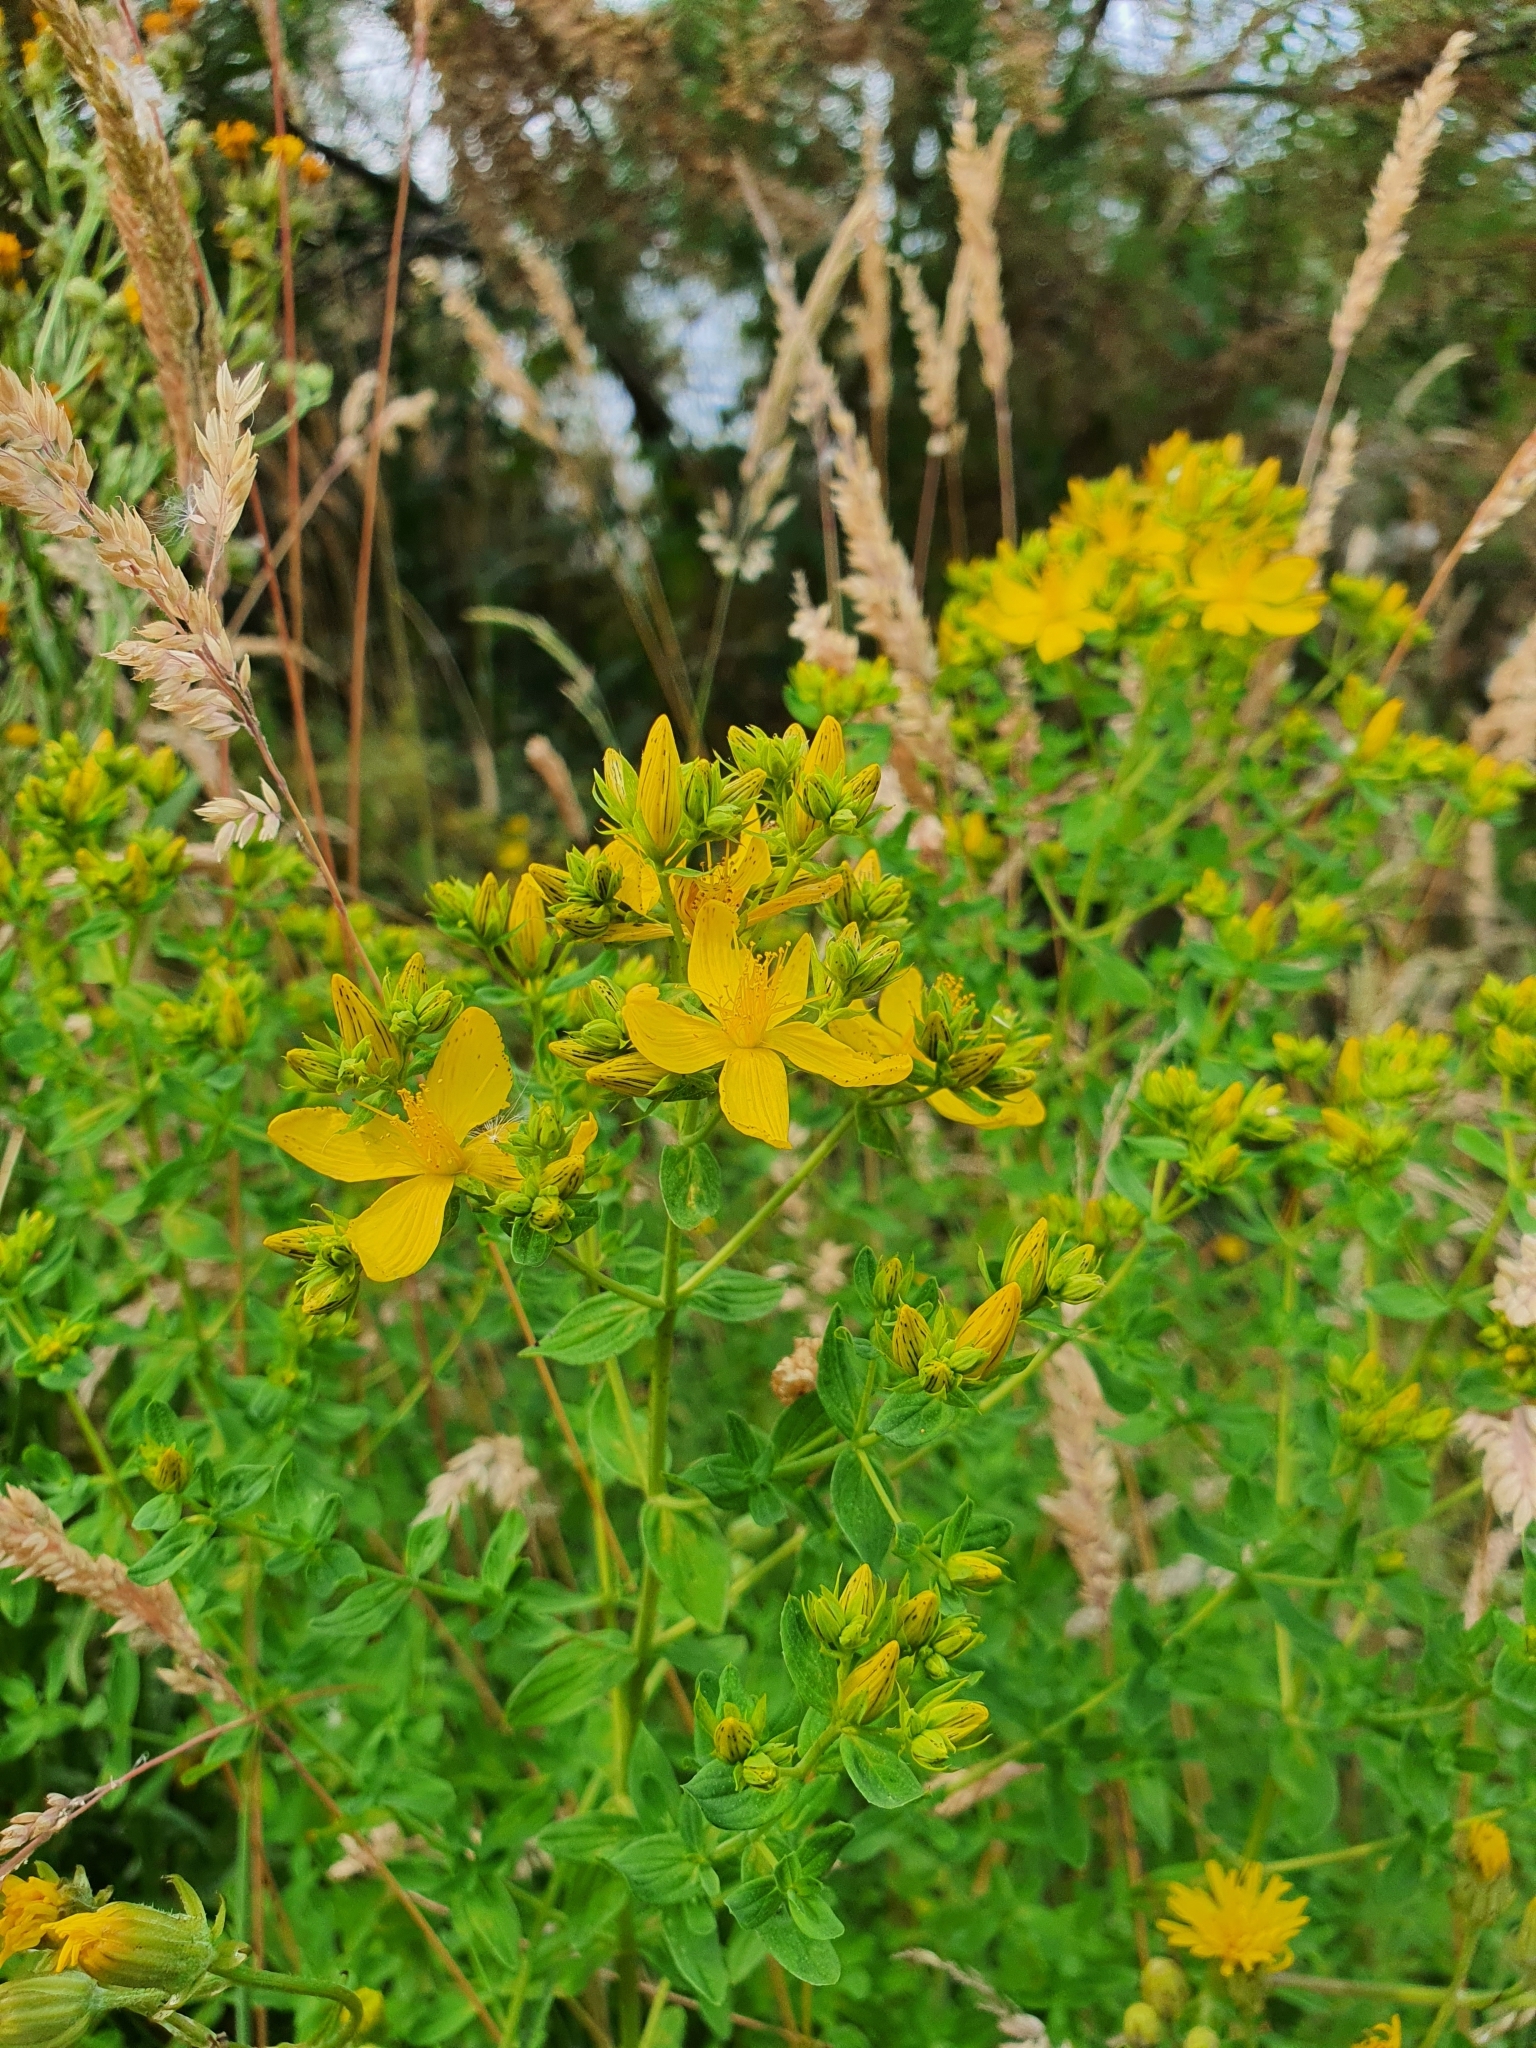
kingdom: Plantae
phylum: Tracheophyta
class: Magnoliopsida
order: Malpighiales
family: Hypericaceae
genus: Hypericum
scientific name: Hypericum desetangsii
